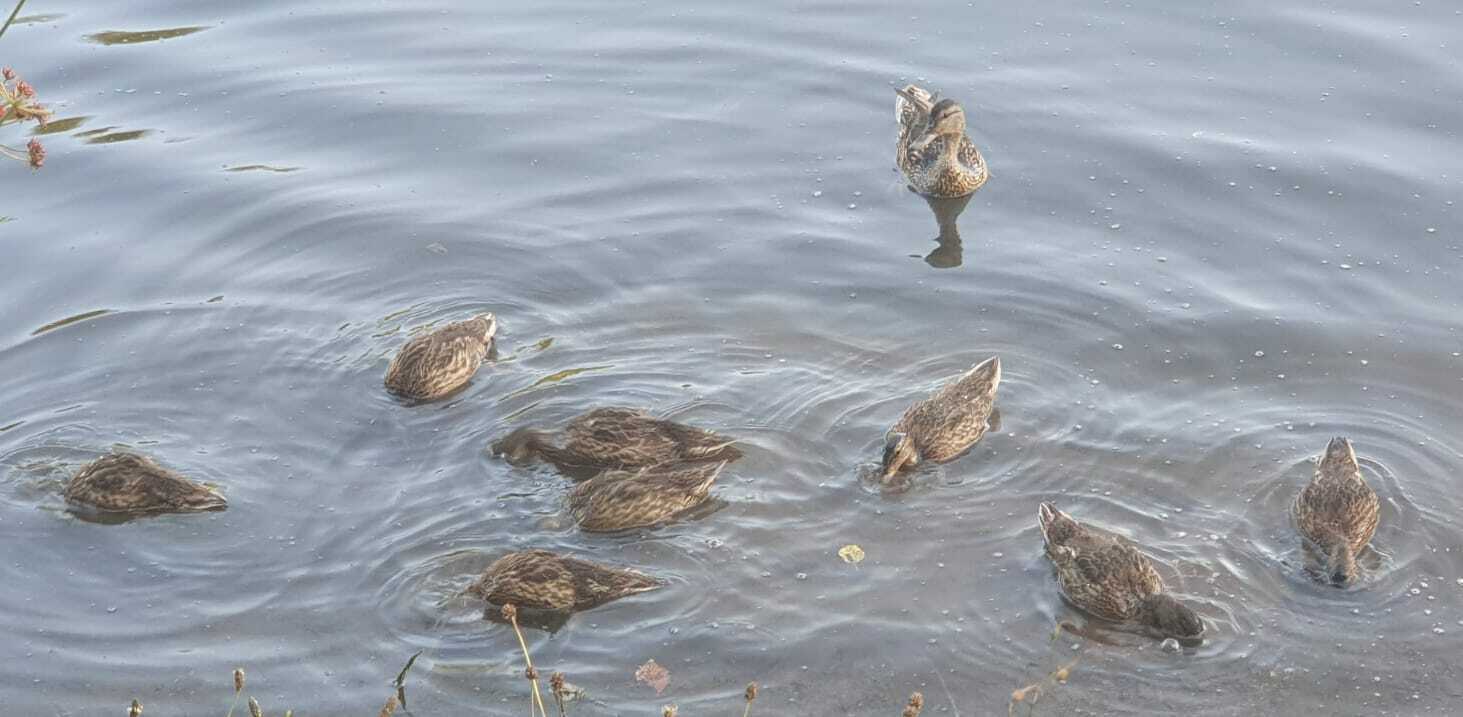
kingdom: Animalia
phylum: Chordata
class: Aves
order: Anseriformes
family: Anatidae
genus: Anas
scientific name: Anas platyrhynchos
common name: Mallard
